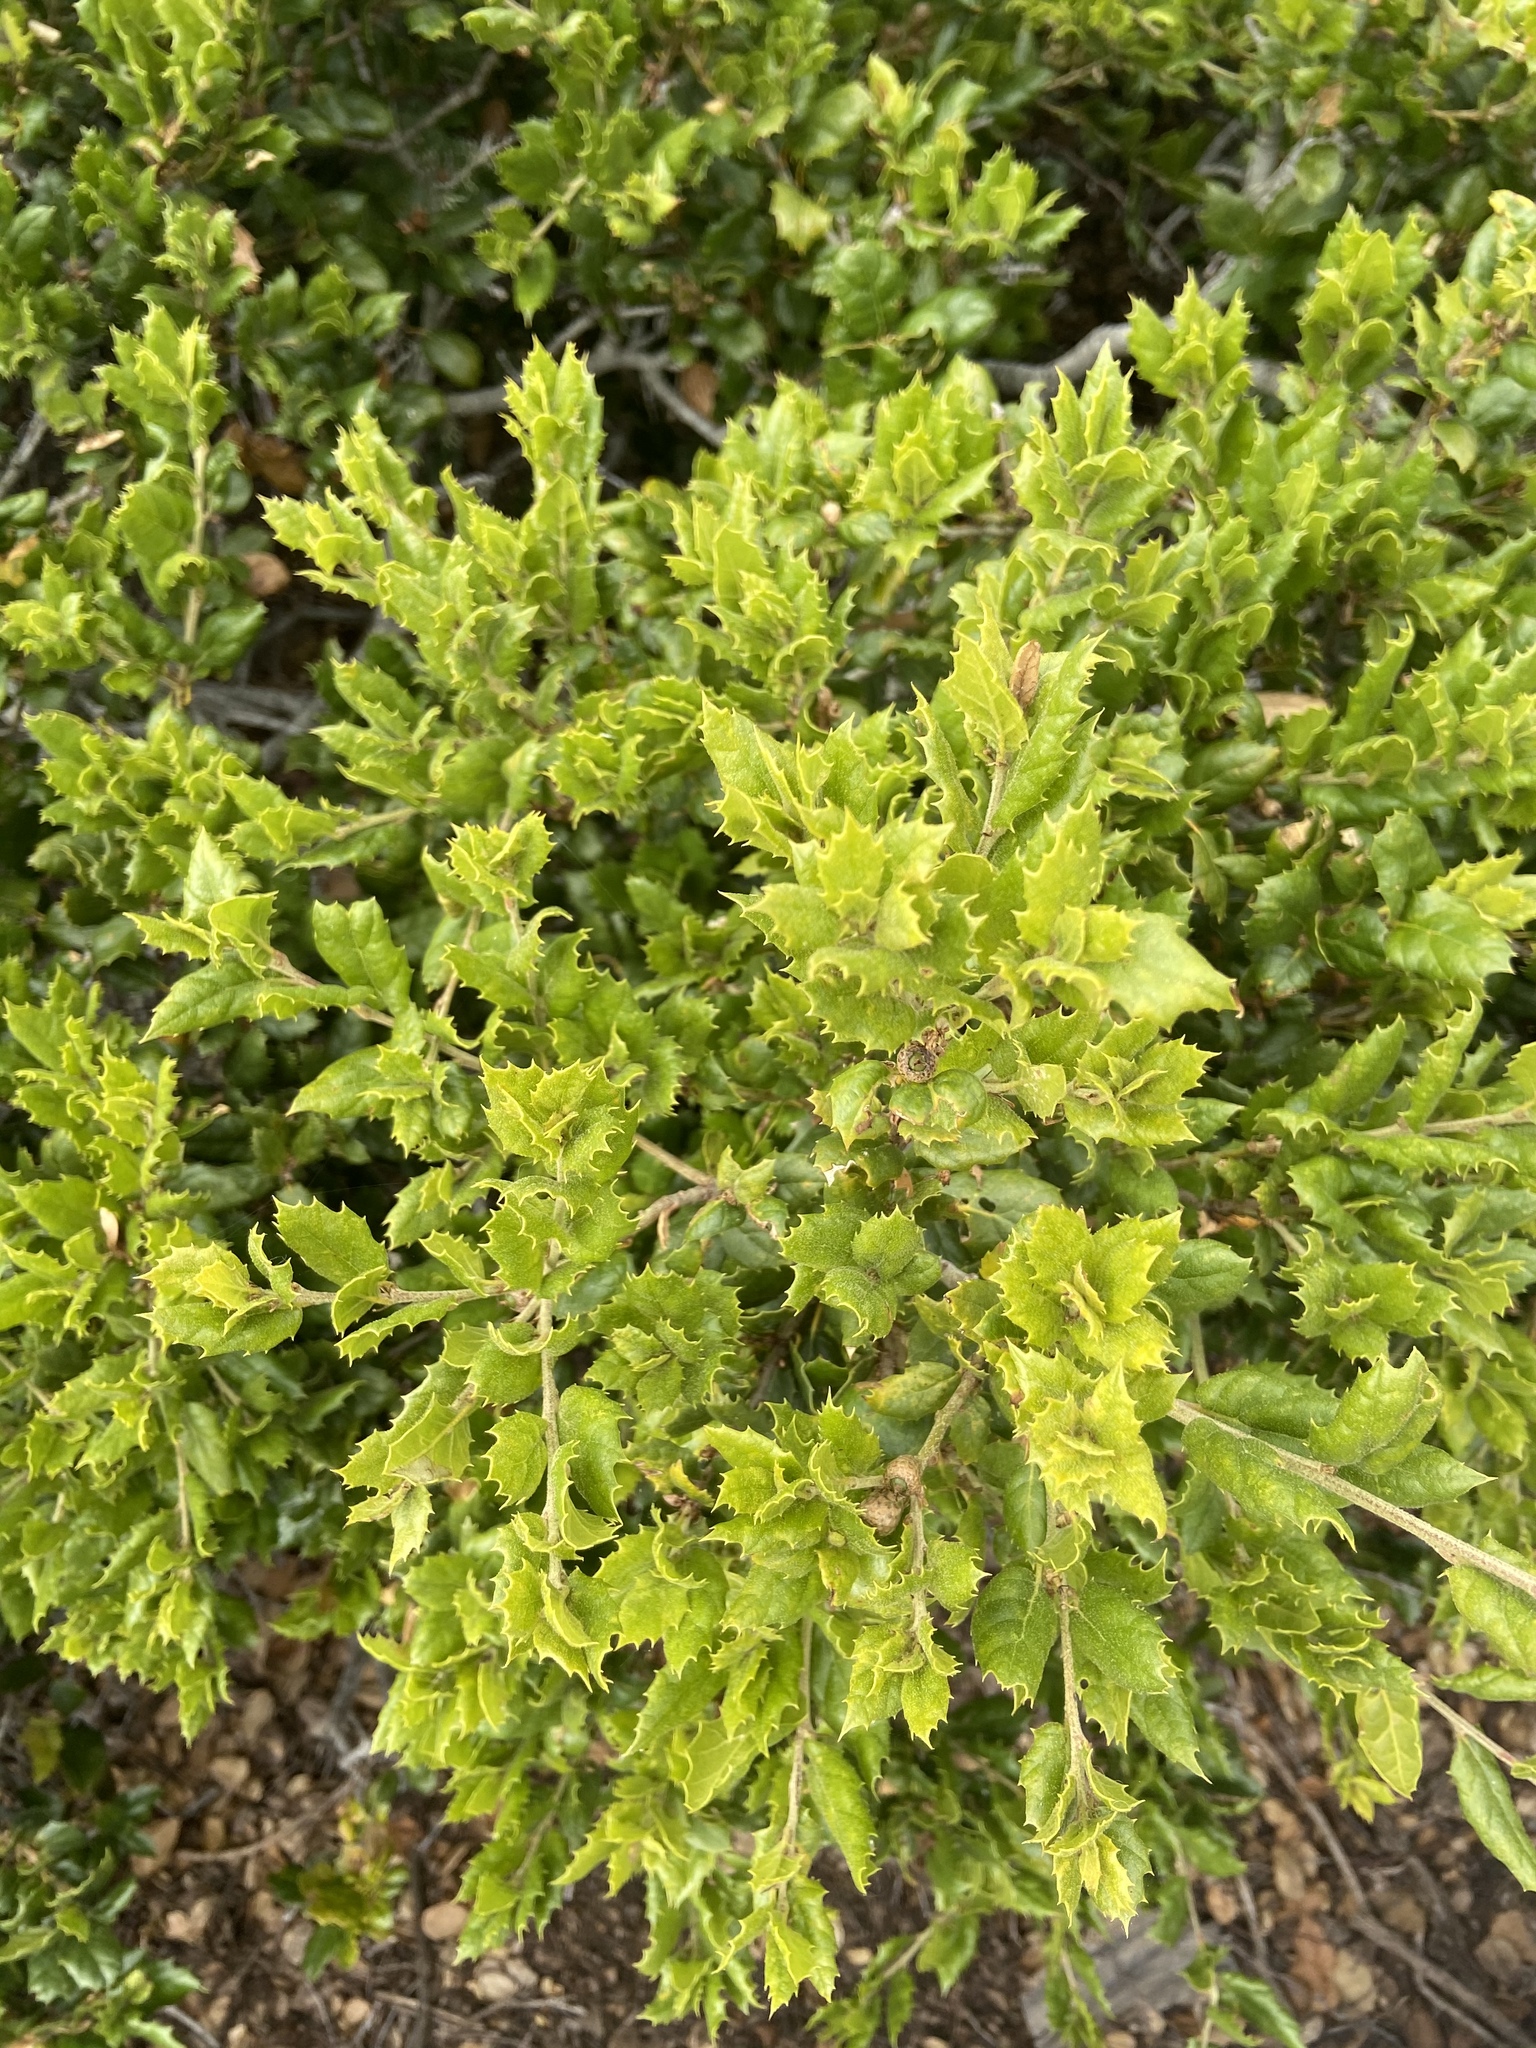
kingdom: Plantae
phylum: Tracheophyta
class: Magnoliopsida
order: Fagales
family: Fagaceae
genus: Quercus
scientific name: Quercus agrifolia
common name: California live oak
